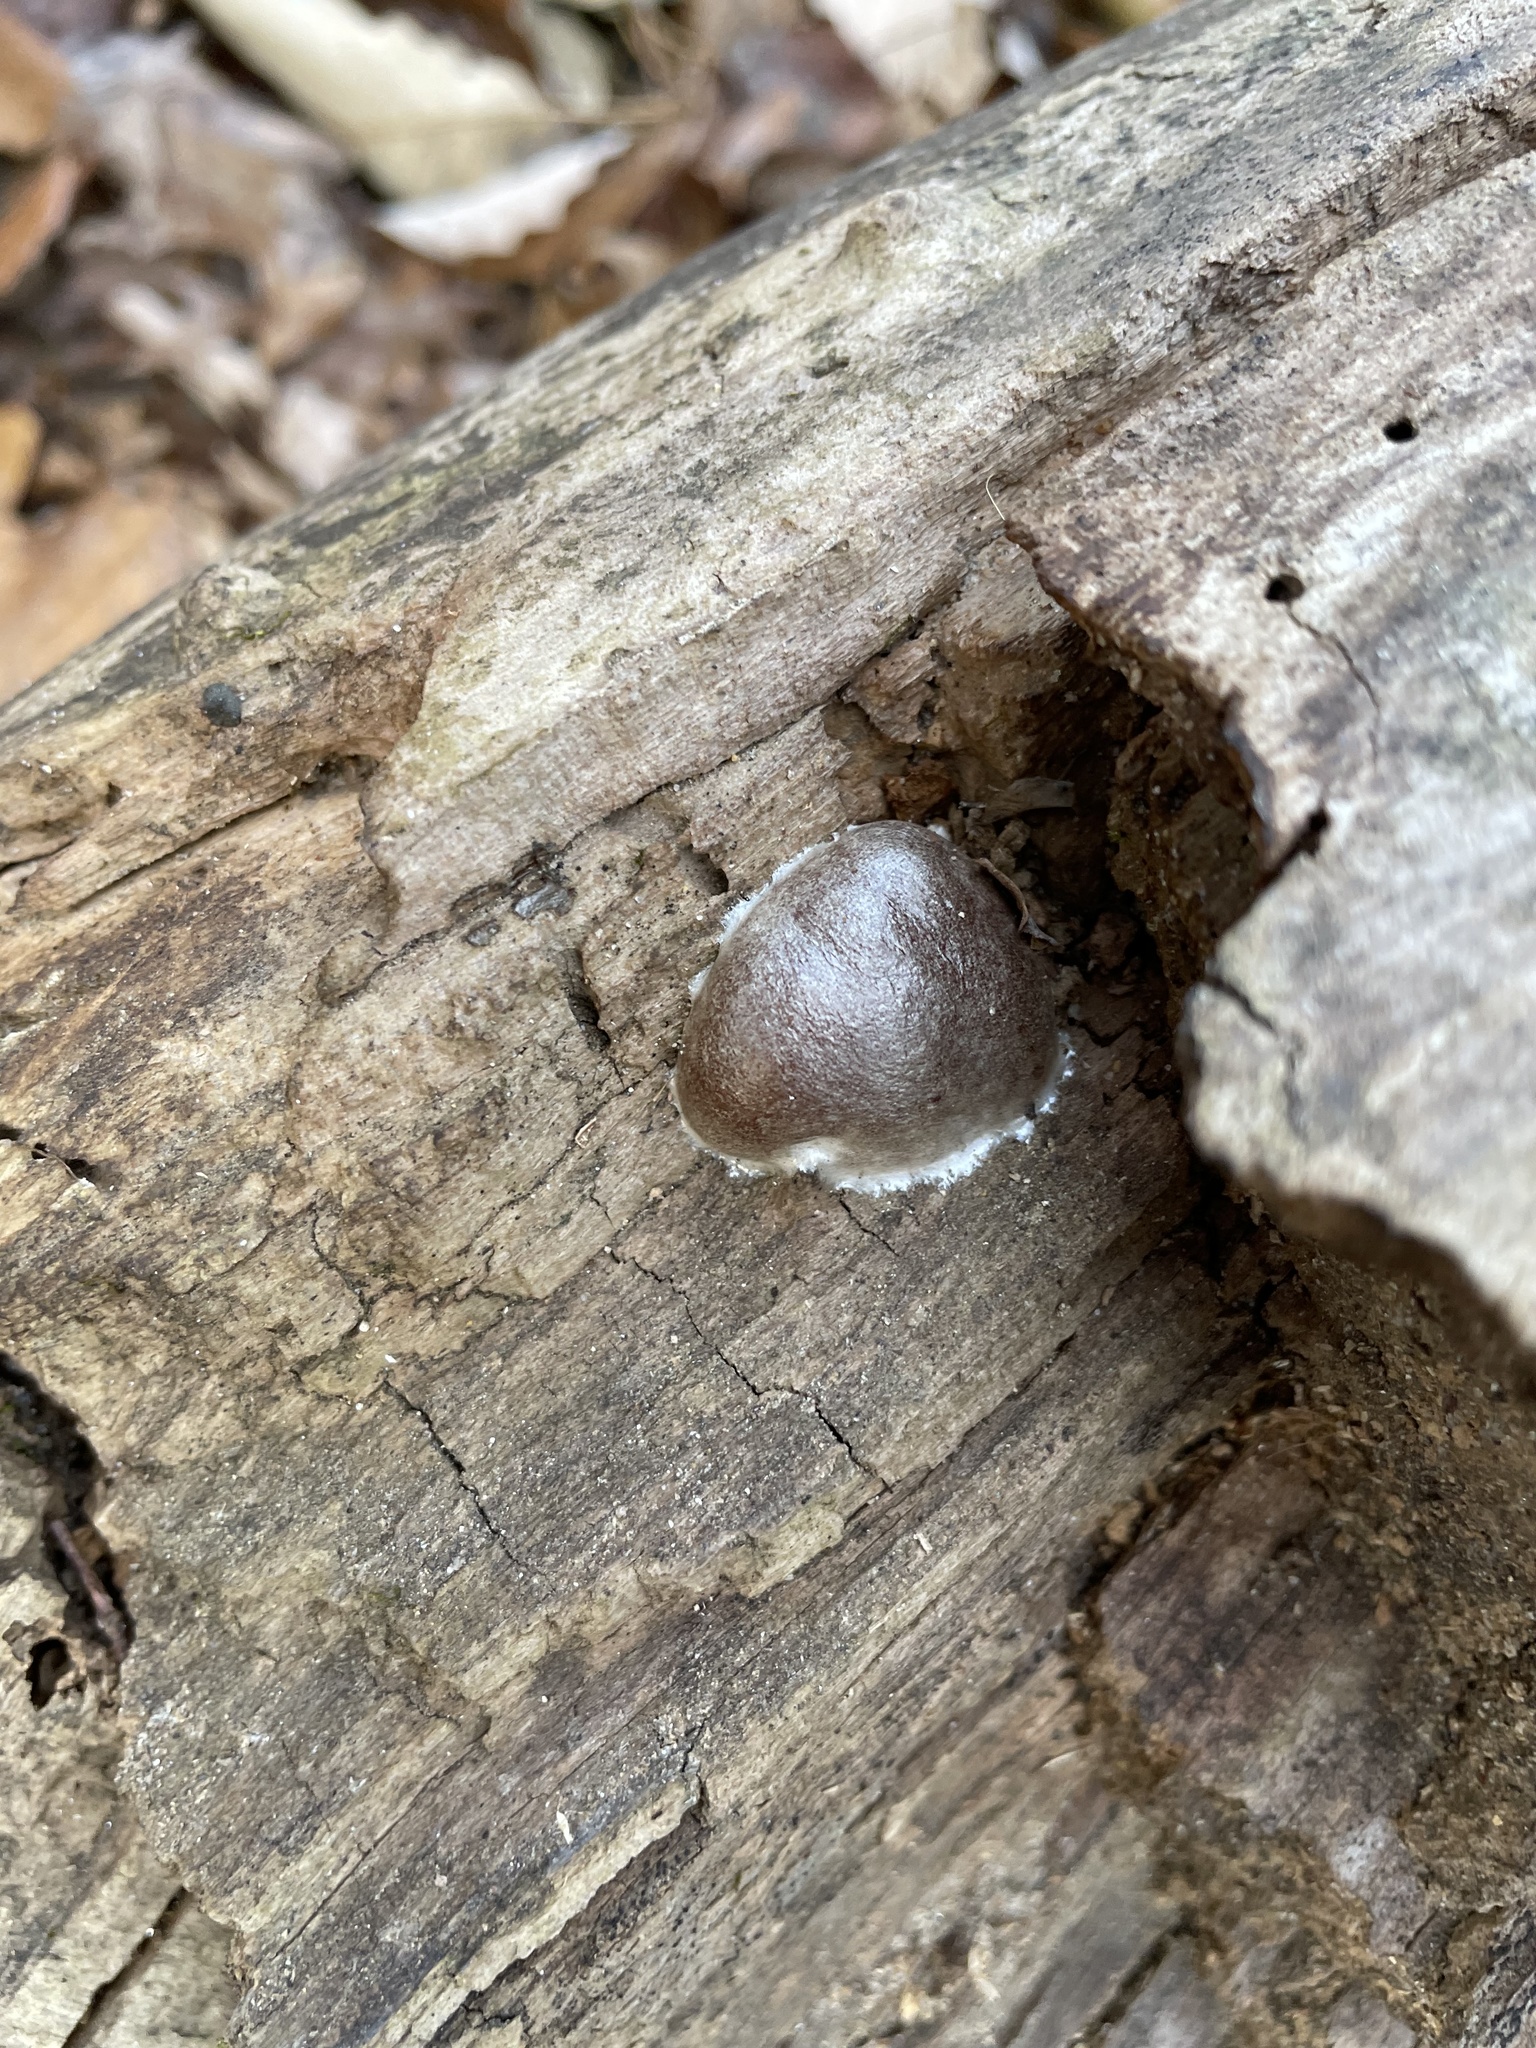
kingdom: Protozoa
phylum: Mycetozoa
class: Myxomycetes
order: Cribrariales
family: Tubiferaceae
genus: Reticularia
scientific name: Reticularia splendens
